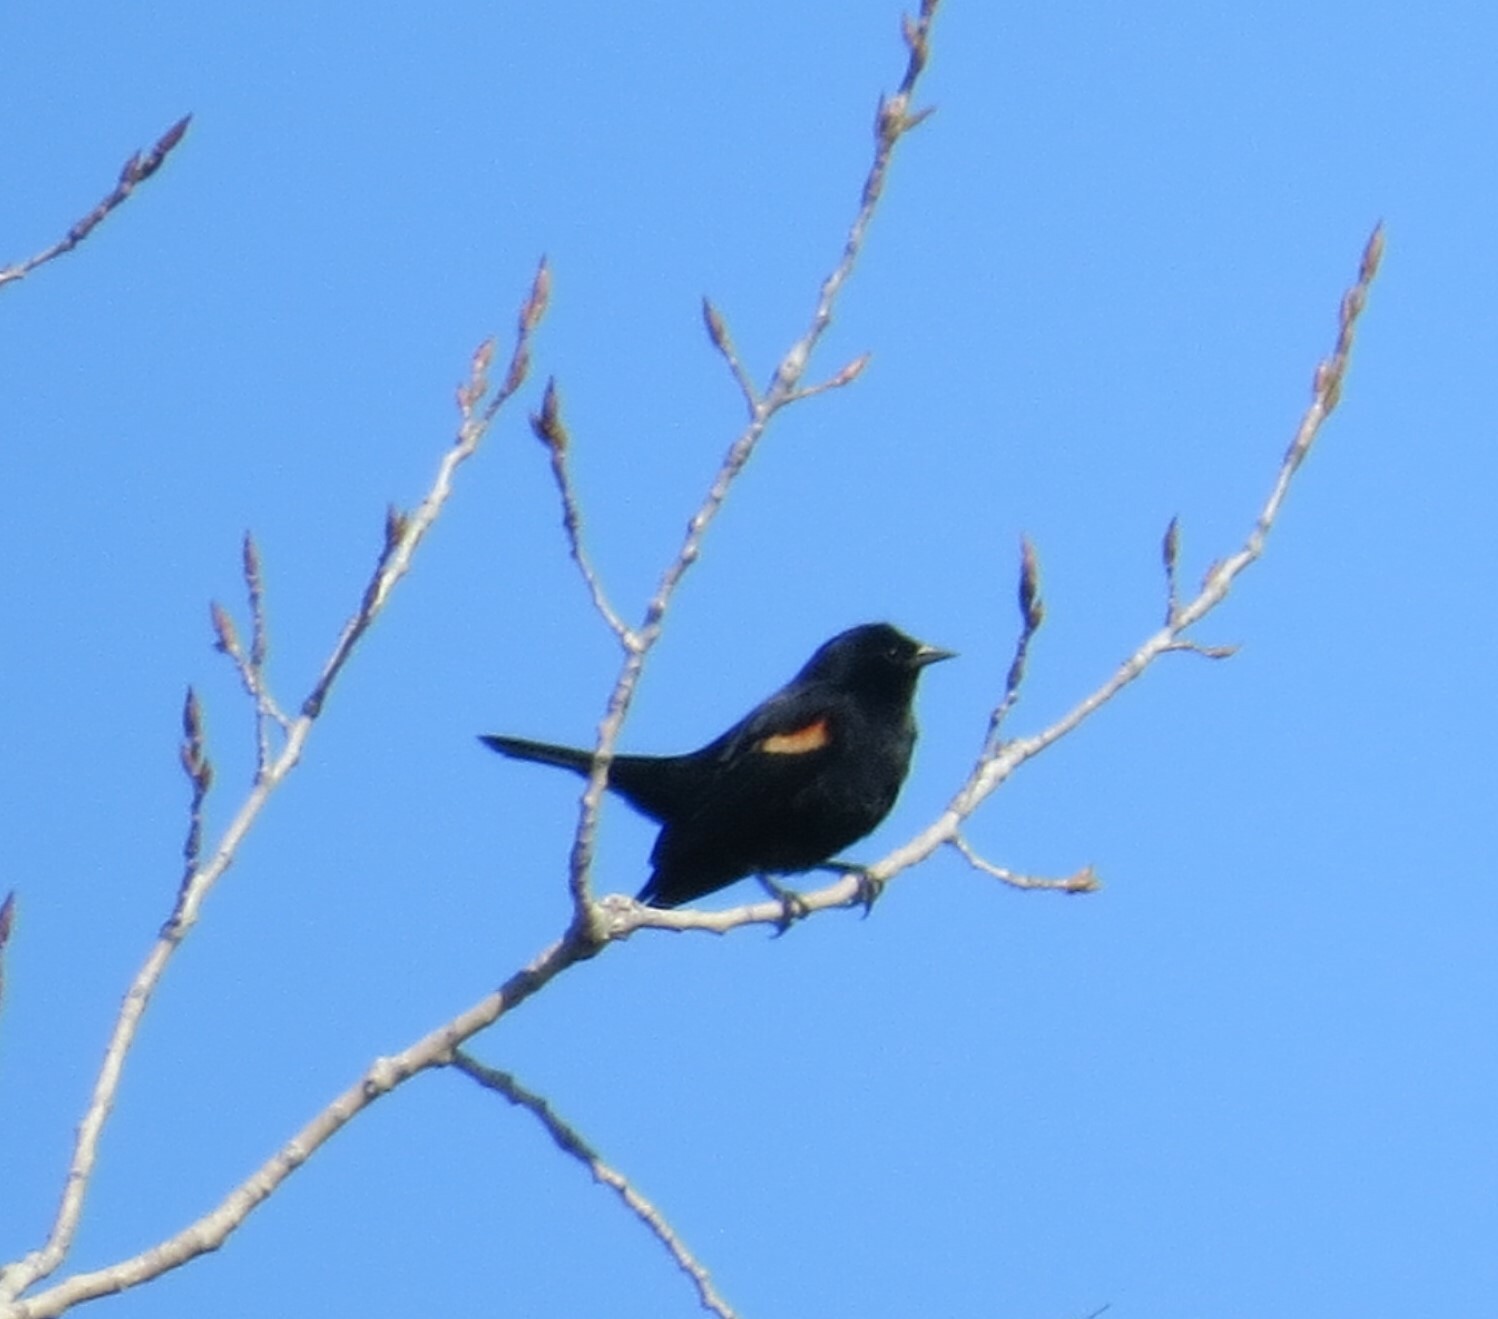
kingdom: Animalia
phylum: Chordata
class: Aves
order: Passeriformes
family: Icteridae
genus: Agelaius
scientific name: Agelaius phoeniceus
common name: Red-winged blackbird
